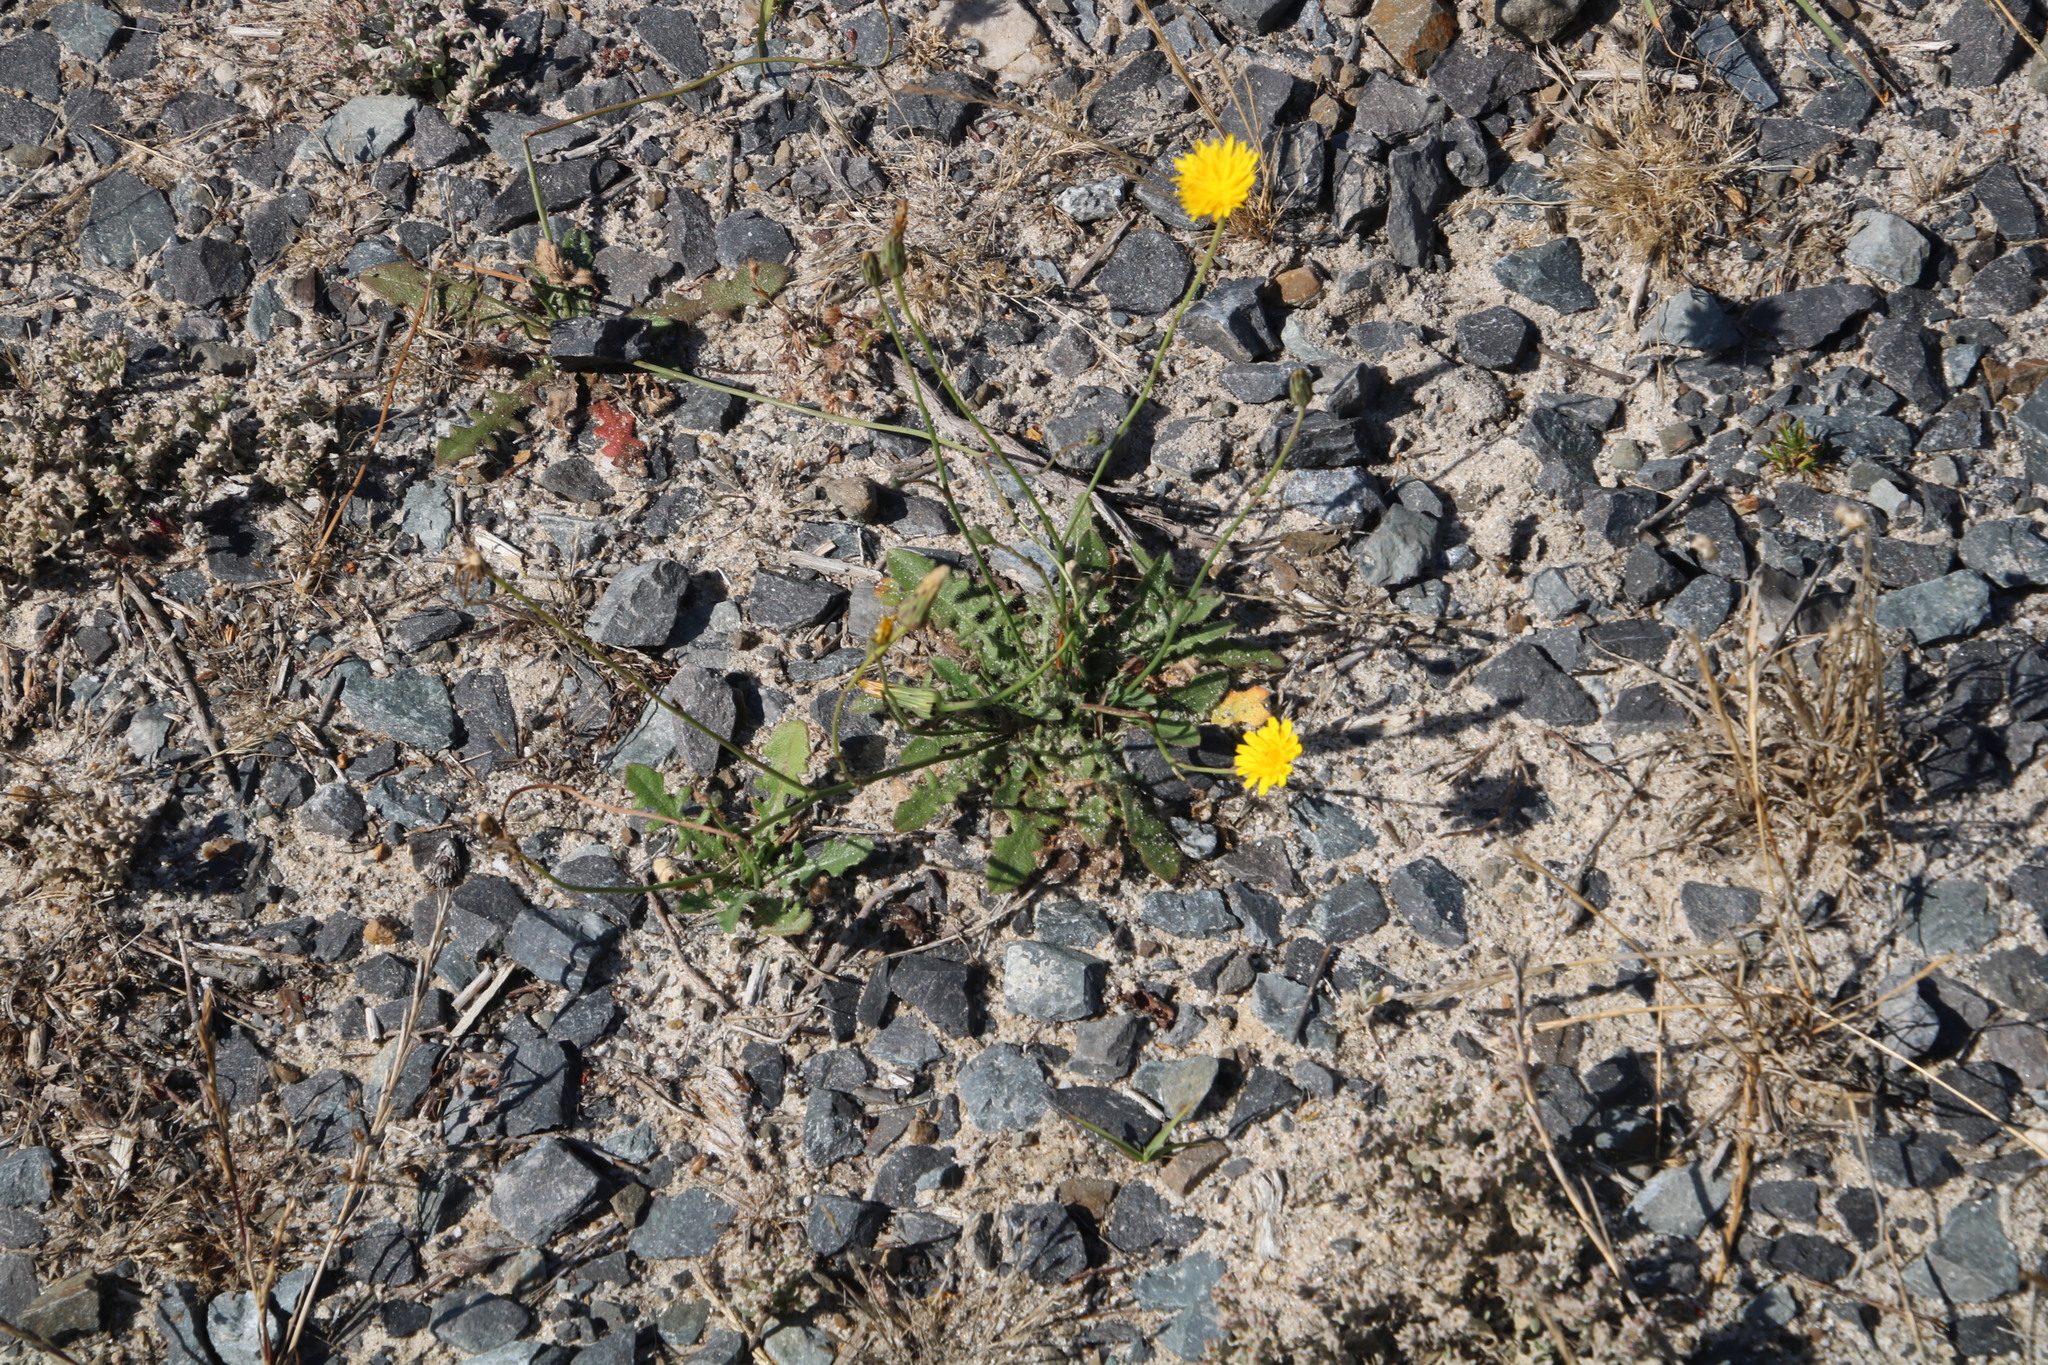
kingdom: Plantae
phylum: Tracheophyta
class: Magnoliopsida
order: Asterales
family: Asteraceae
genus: Hypochaeris
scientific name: Hypochaeris radicata
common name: Flatweed
